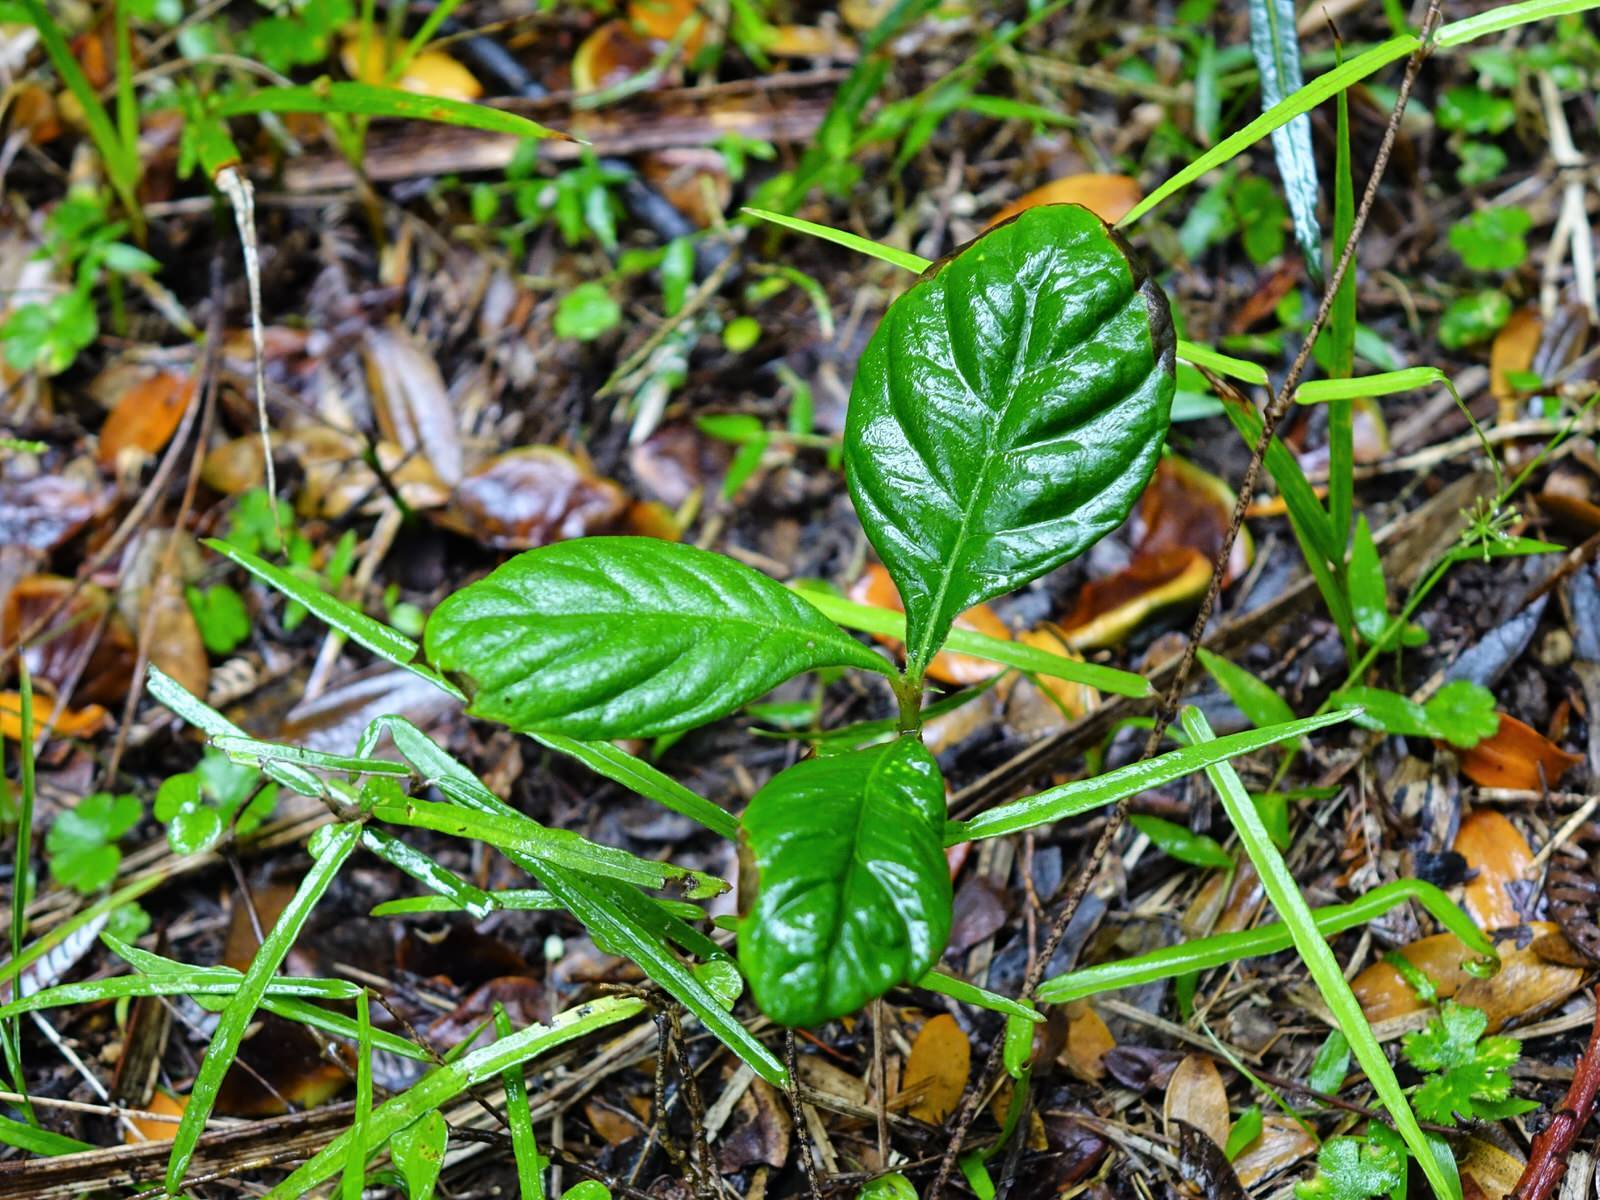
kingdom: Plantae
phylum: Tracheophyta
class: Magnoliopsida
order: Laurales
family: Lauraceae
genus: Beilschmiedia
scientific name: Beilschmiedia tarairi
